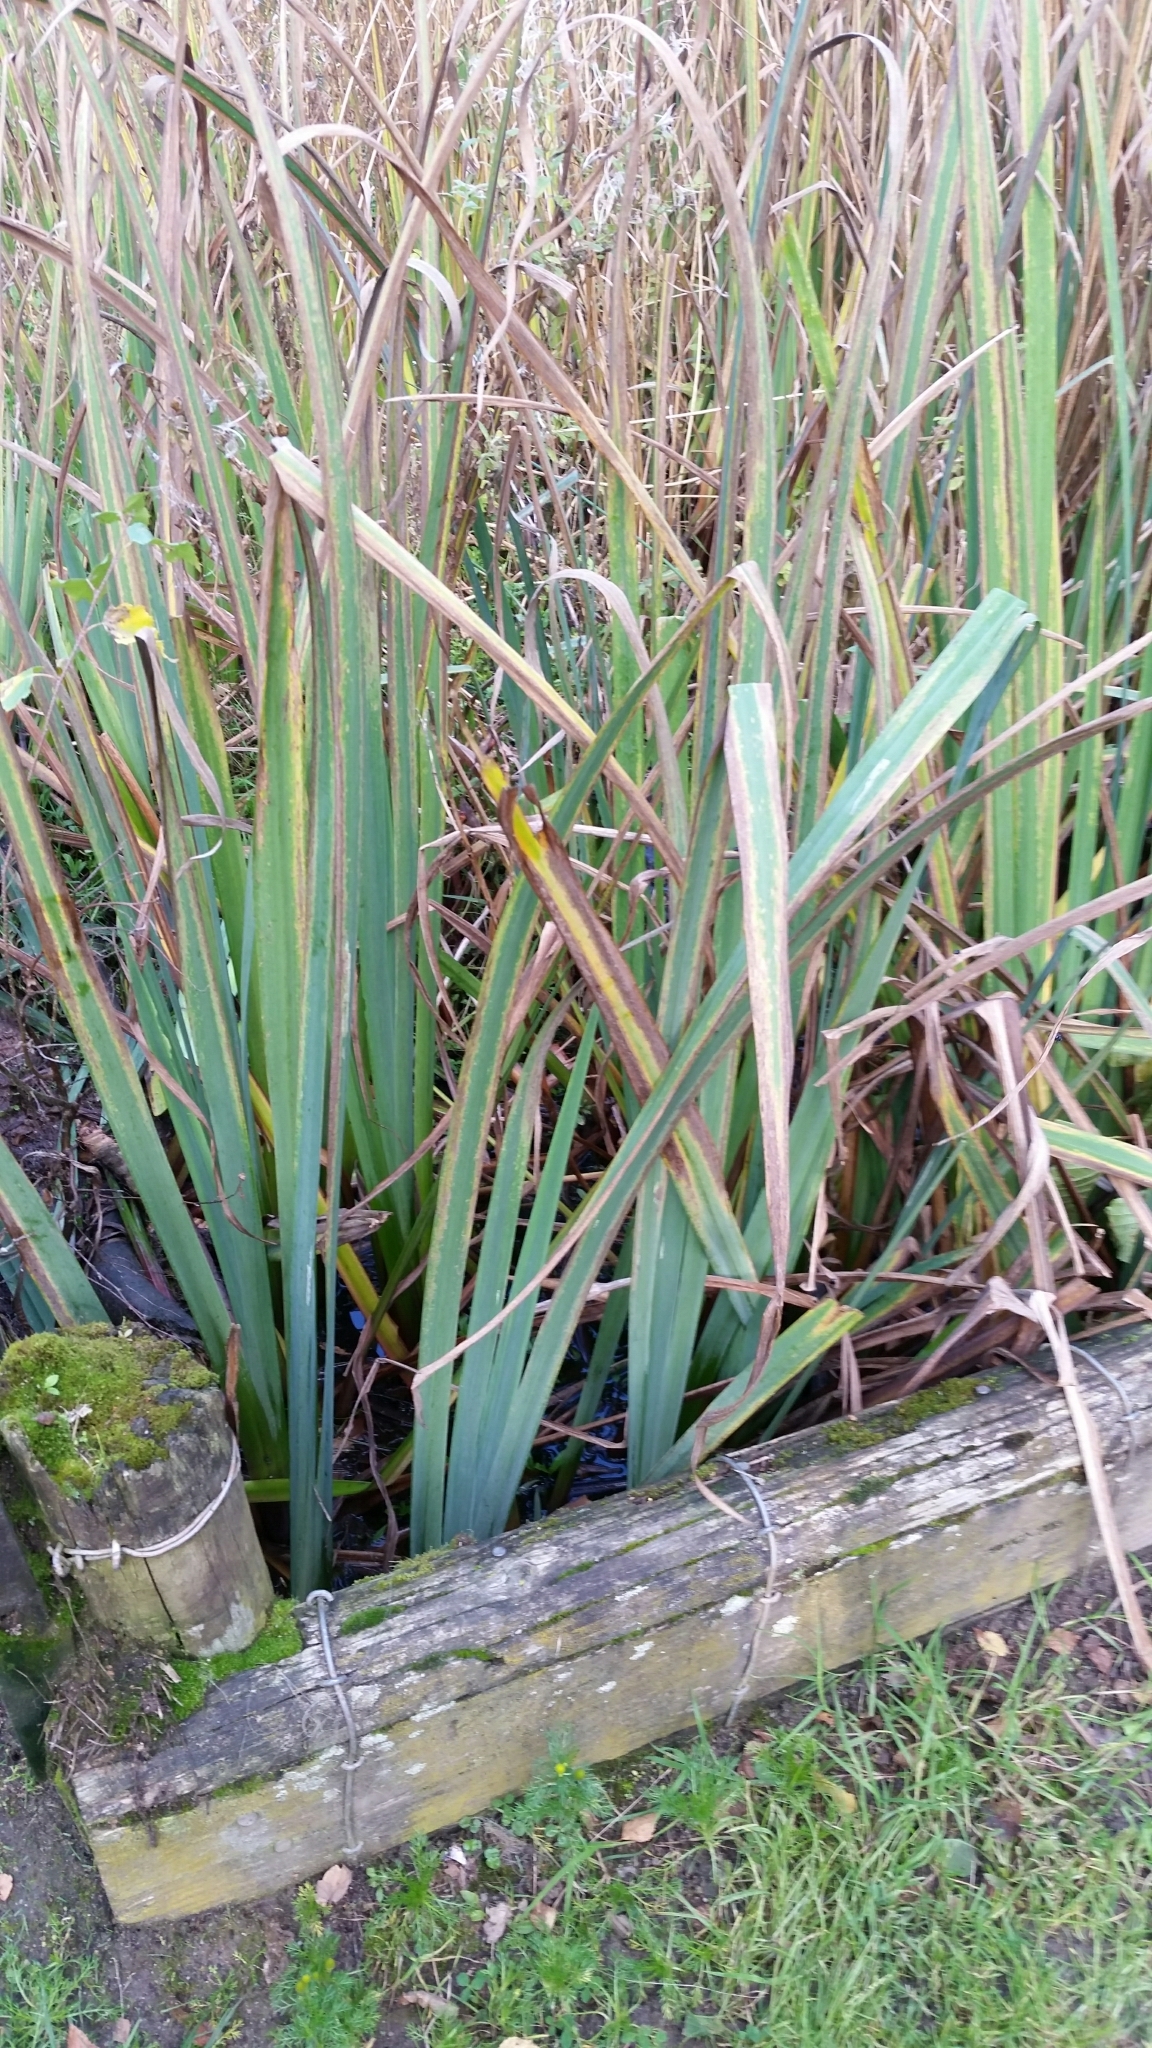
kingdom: Plantae
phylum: Tracheophyta
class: Liliopsida
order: Asparagales
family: Iridaceae
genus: Iris
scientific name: Iris pseudacorus
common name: Yellow flag
